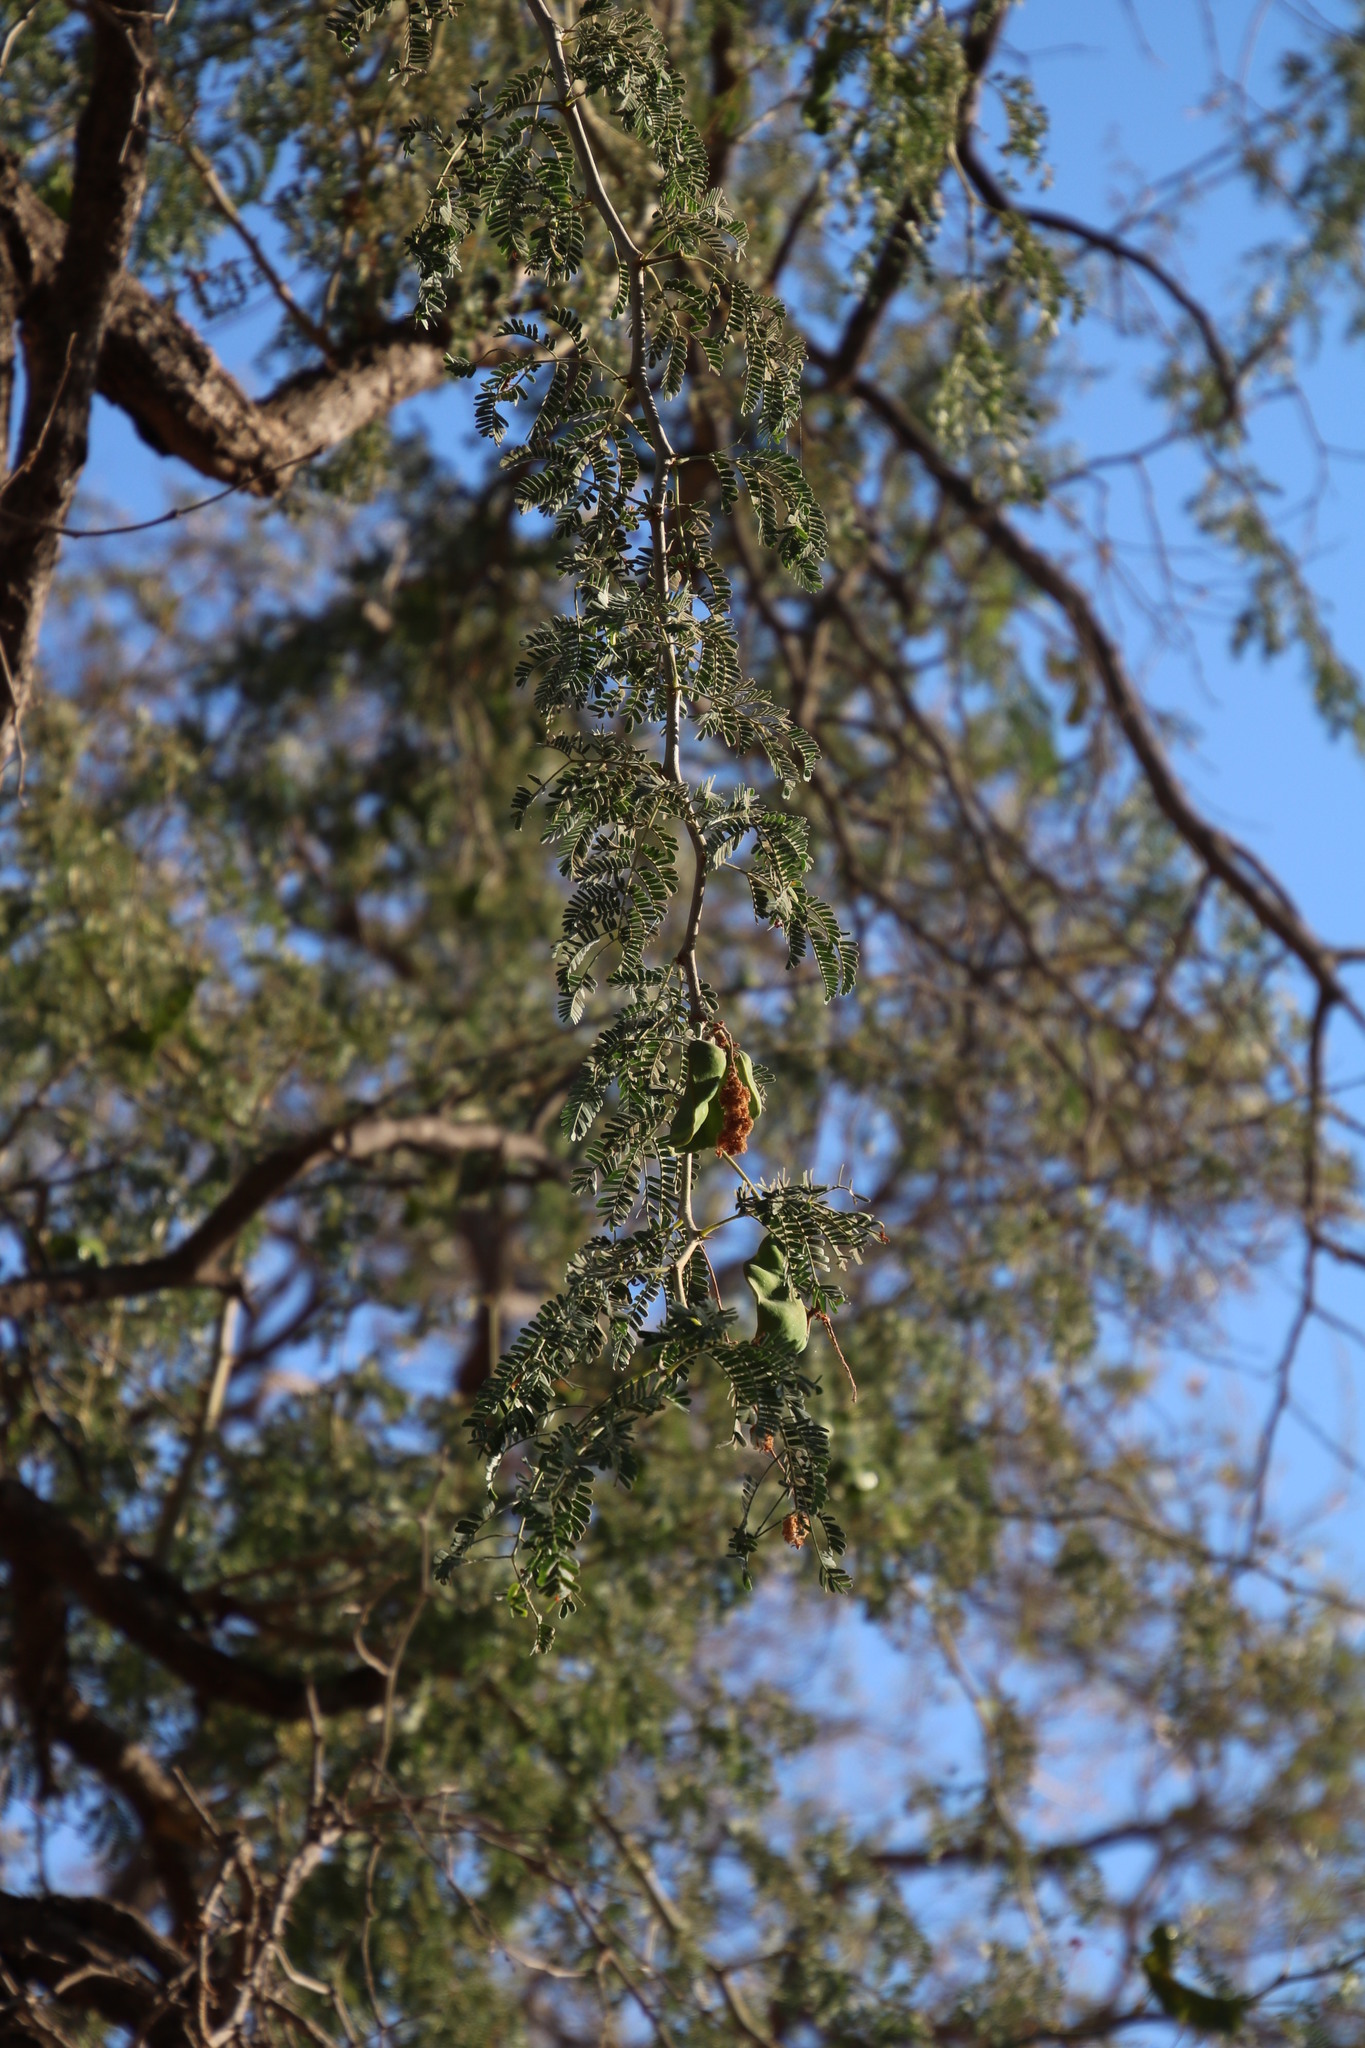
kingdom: Plantae
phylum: Tracheophyta
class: Magnoliopsida
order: Fabales
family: Fabaceae
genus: Faidherbia
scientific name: Faidherbia albida
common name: Anatree
